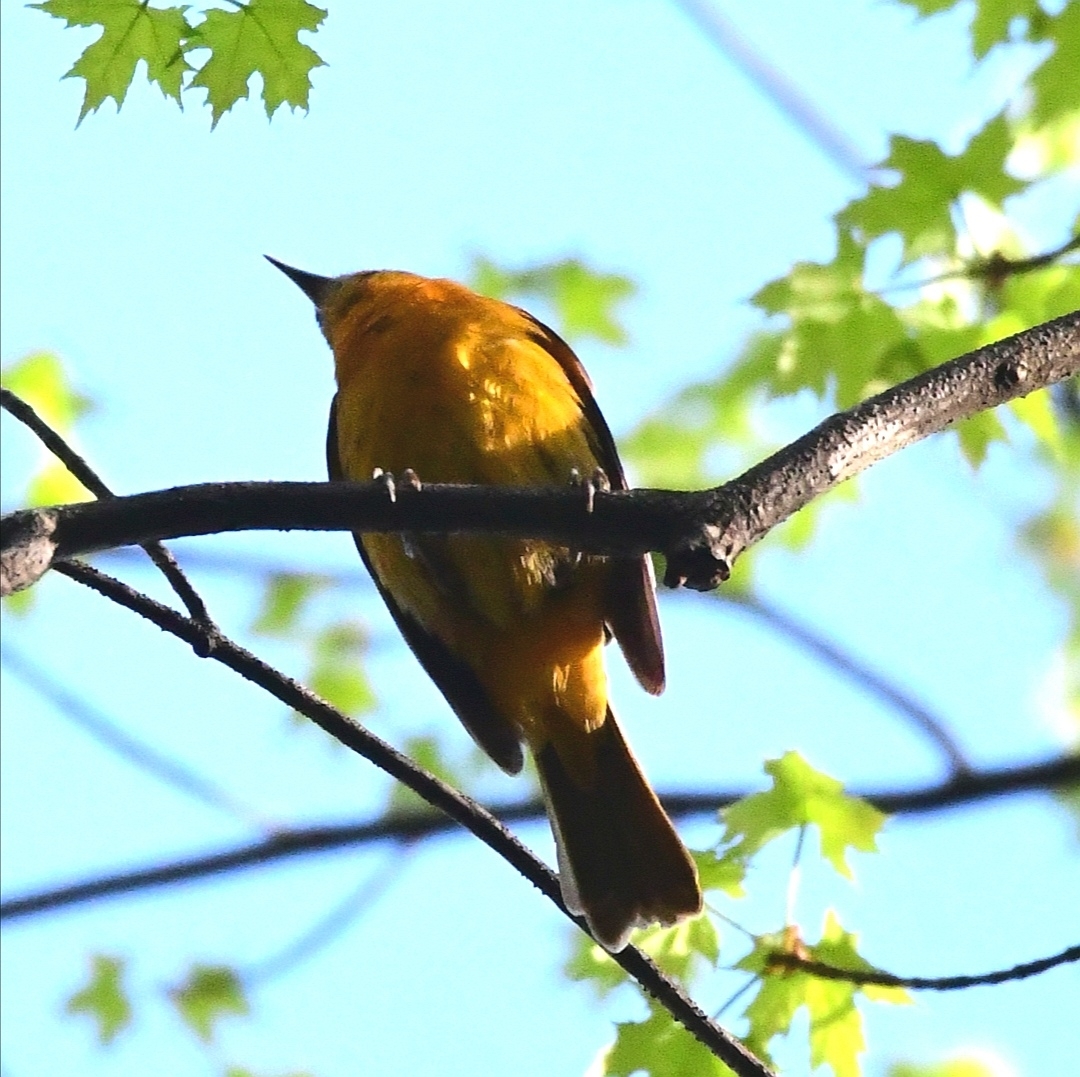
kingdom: Animalia
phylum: Chordata
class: Aves
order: Passeriformes
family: Icteridae
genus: Icterus
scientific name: Icterus galbula
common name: Baltimore oriole
